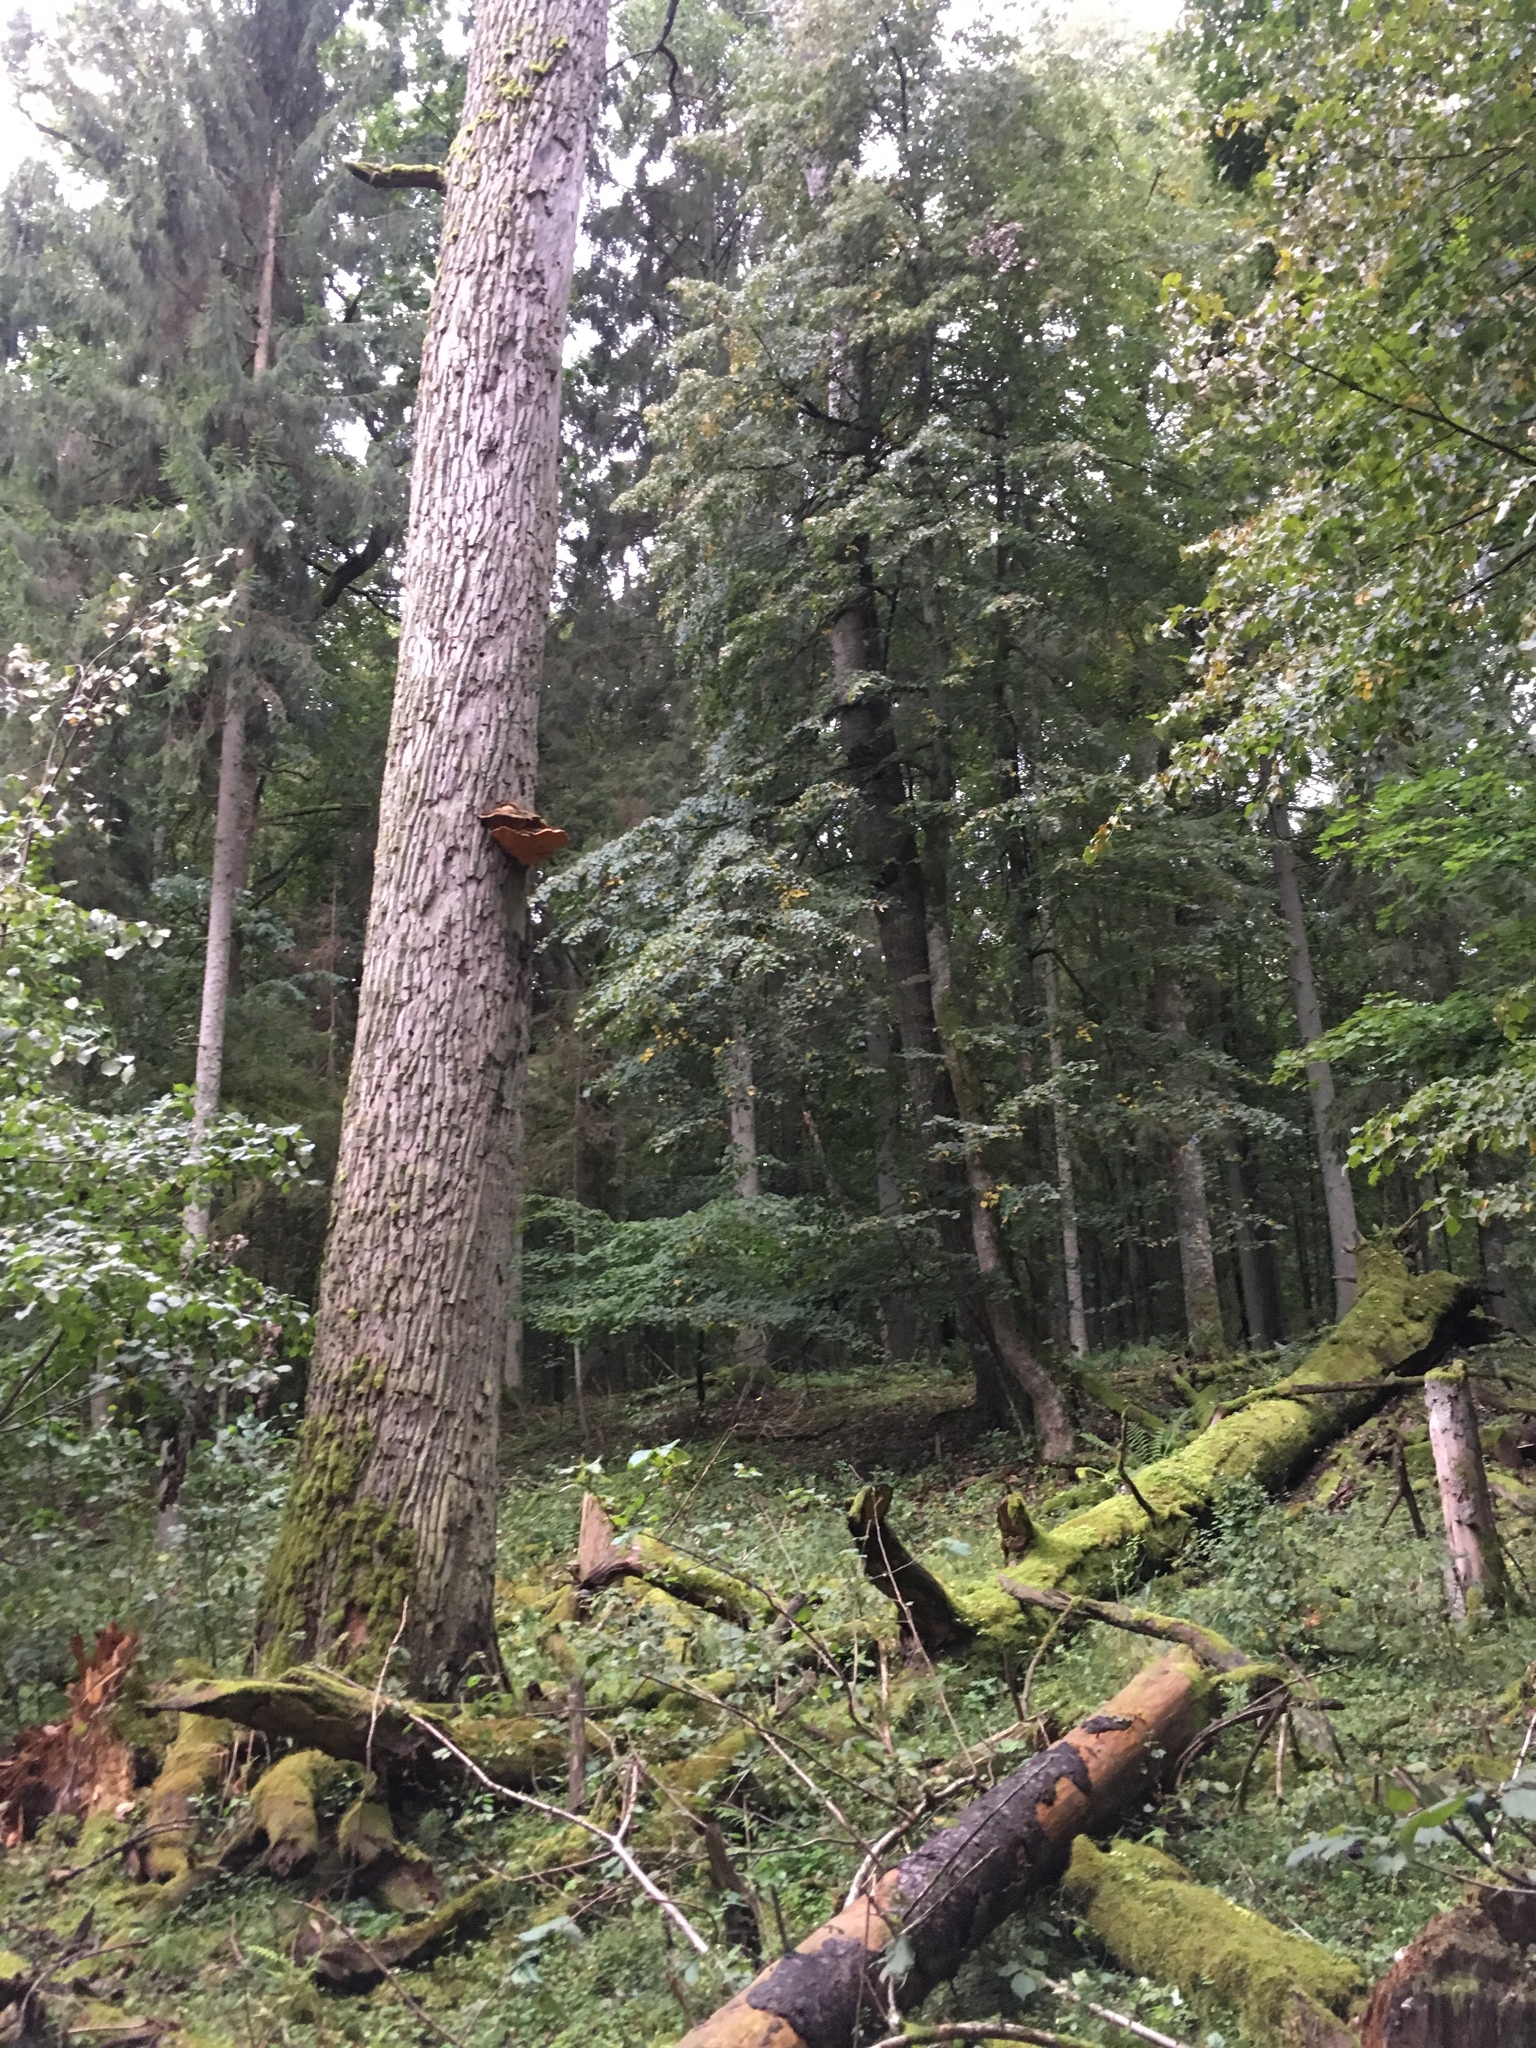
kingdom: Fungi
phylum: Basidiomycota
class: Agaricomycetes
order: Polyporales
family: Phanerochaetaceae
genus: Hapalopilus
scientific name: Hapalopilus croceus
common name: Orange polypore
